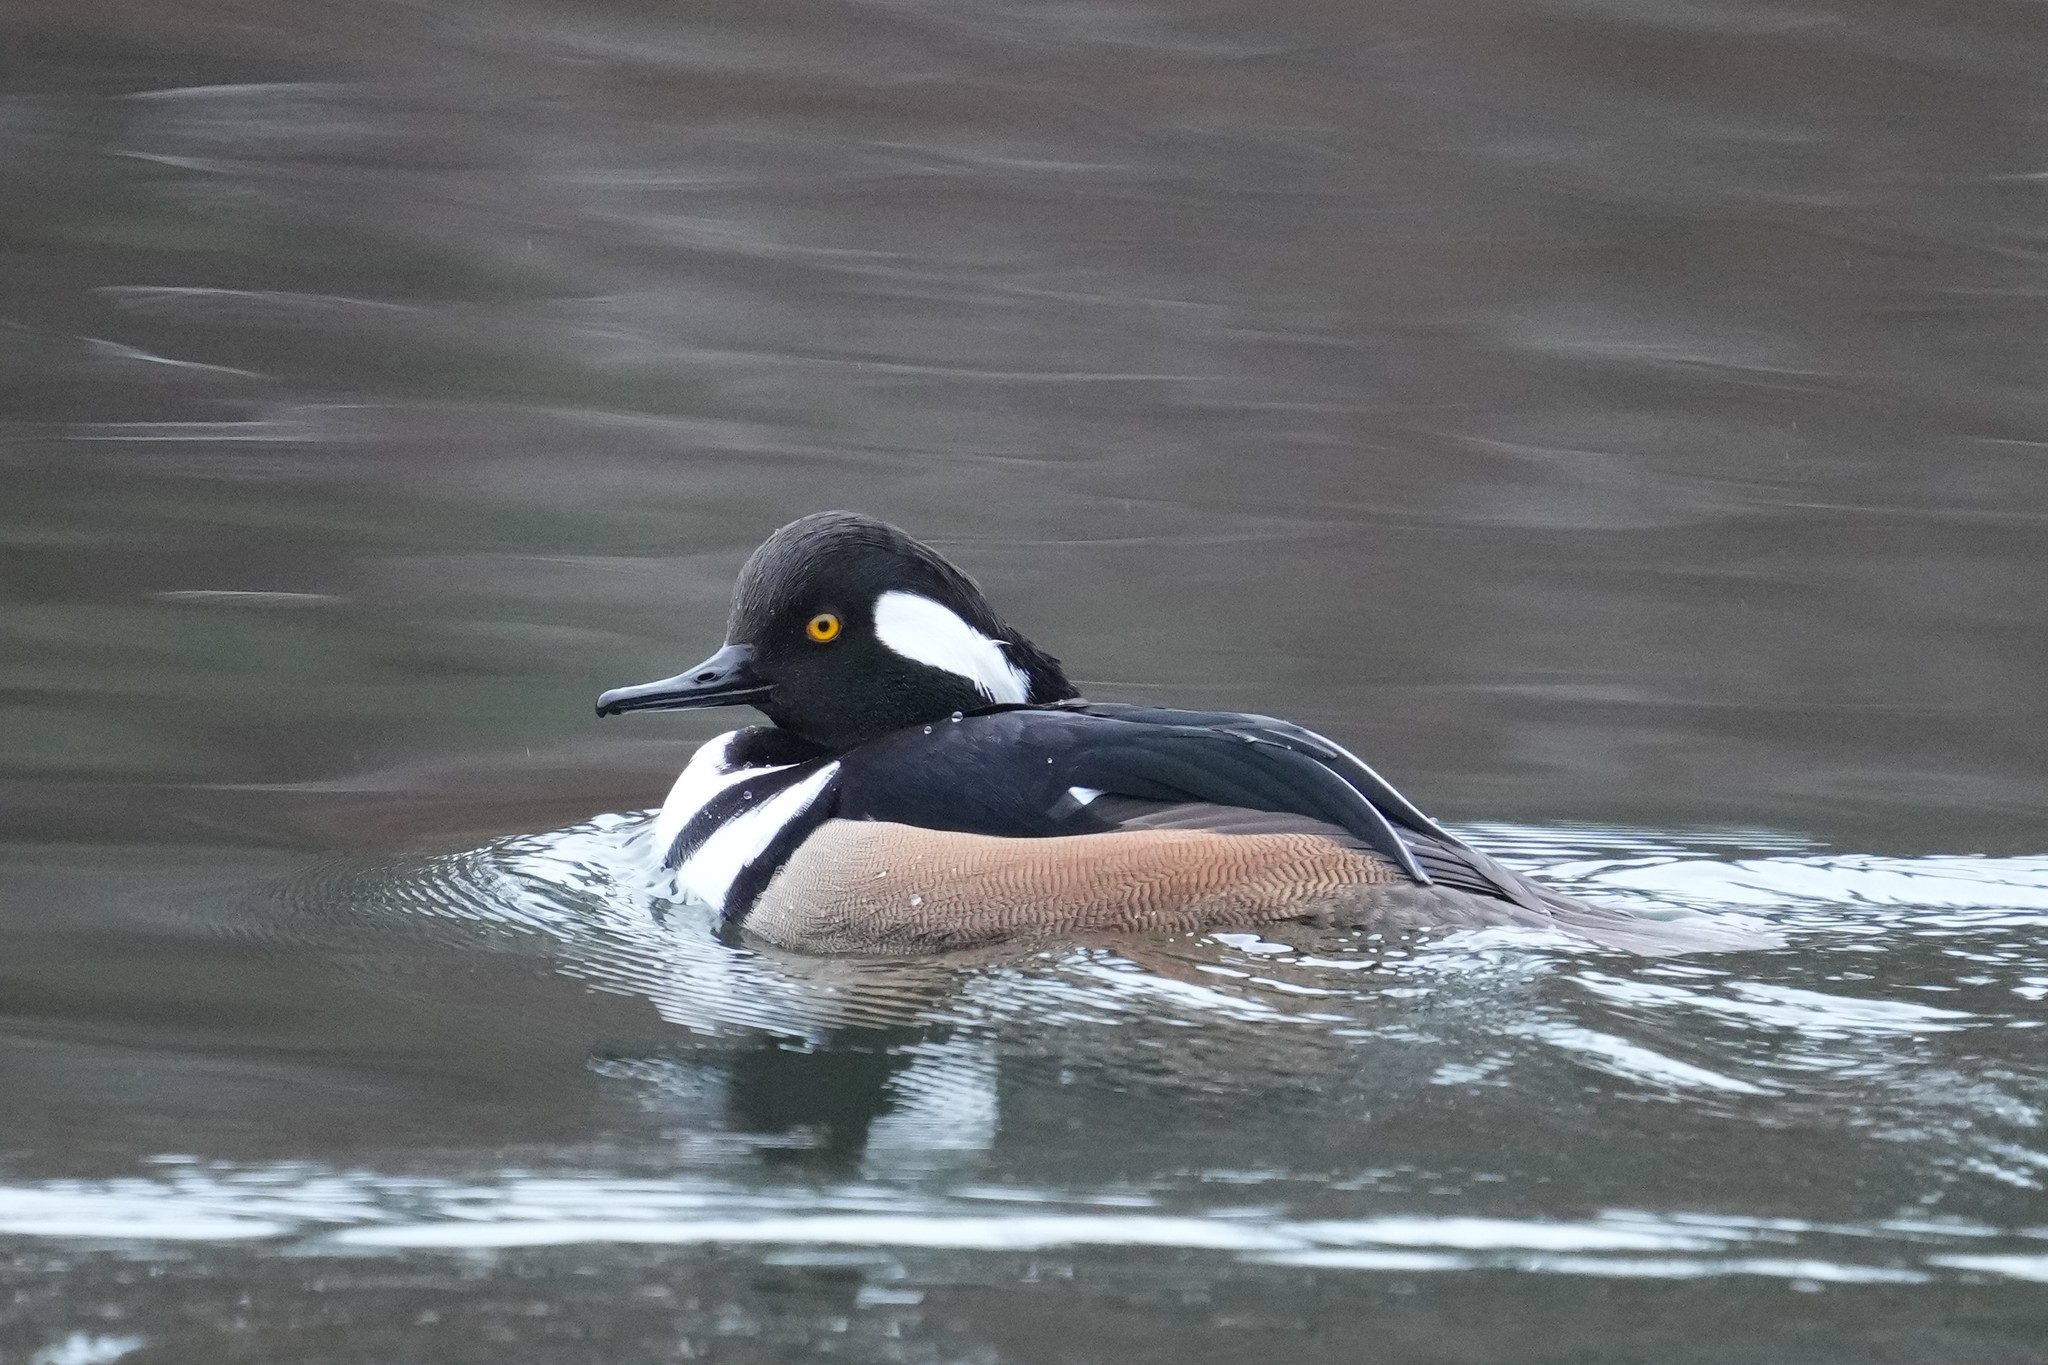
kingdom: Animalia
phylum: Chordata
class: Aves
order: Anseriformes
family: Anatidae
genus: Lophodytes
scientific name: Lophodytes cucullatus
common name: Hooded merganser
